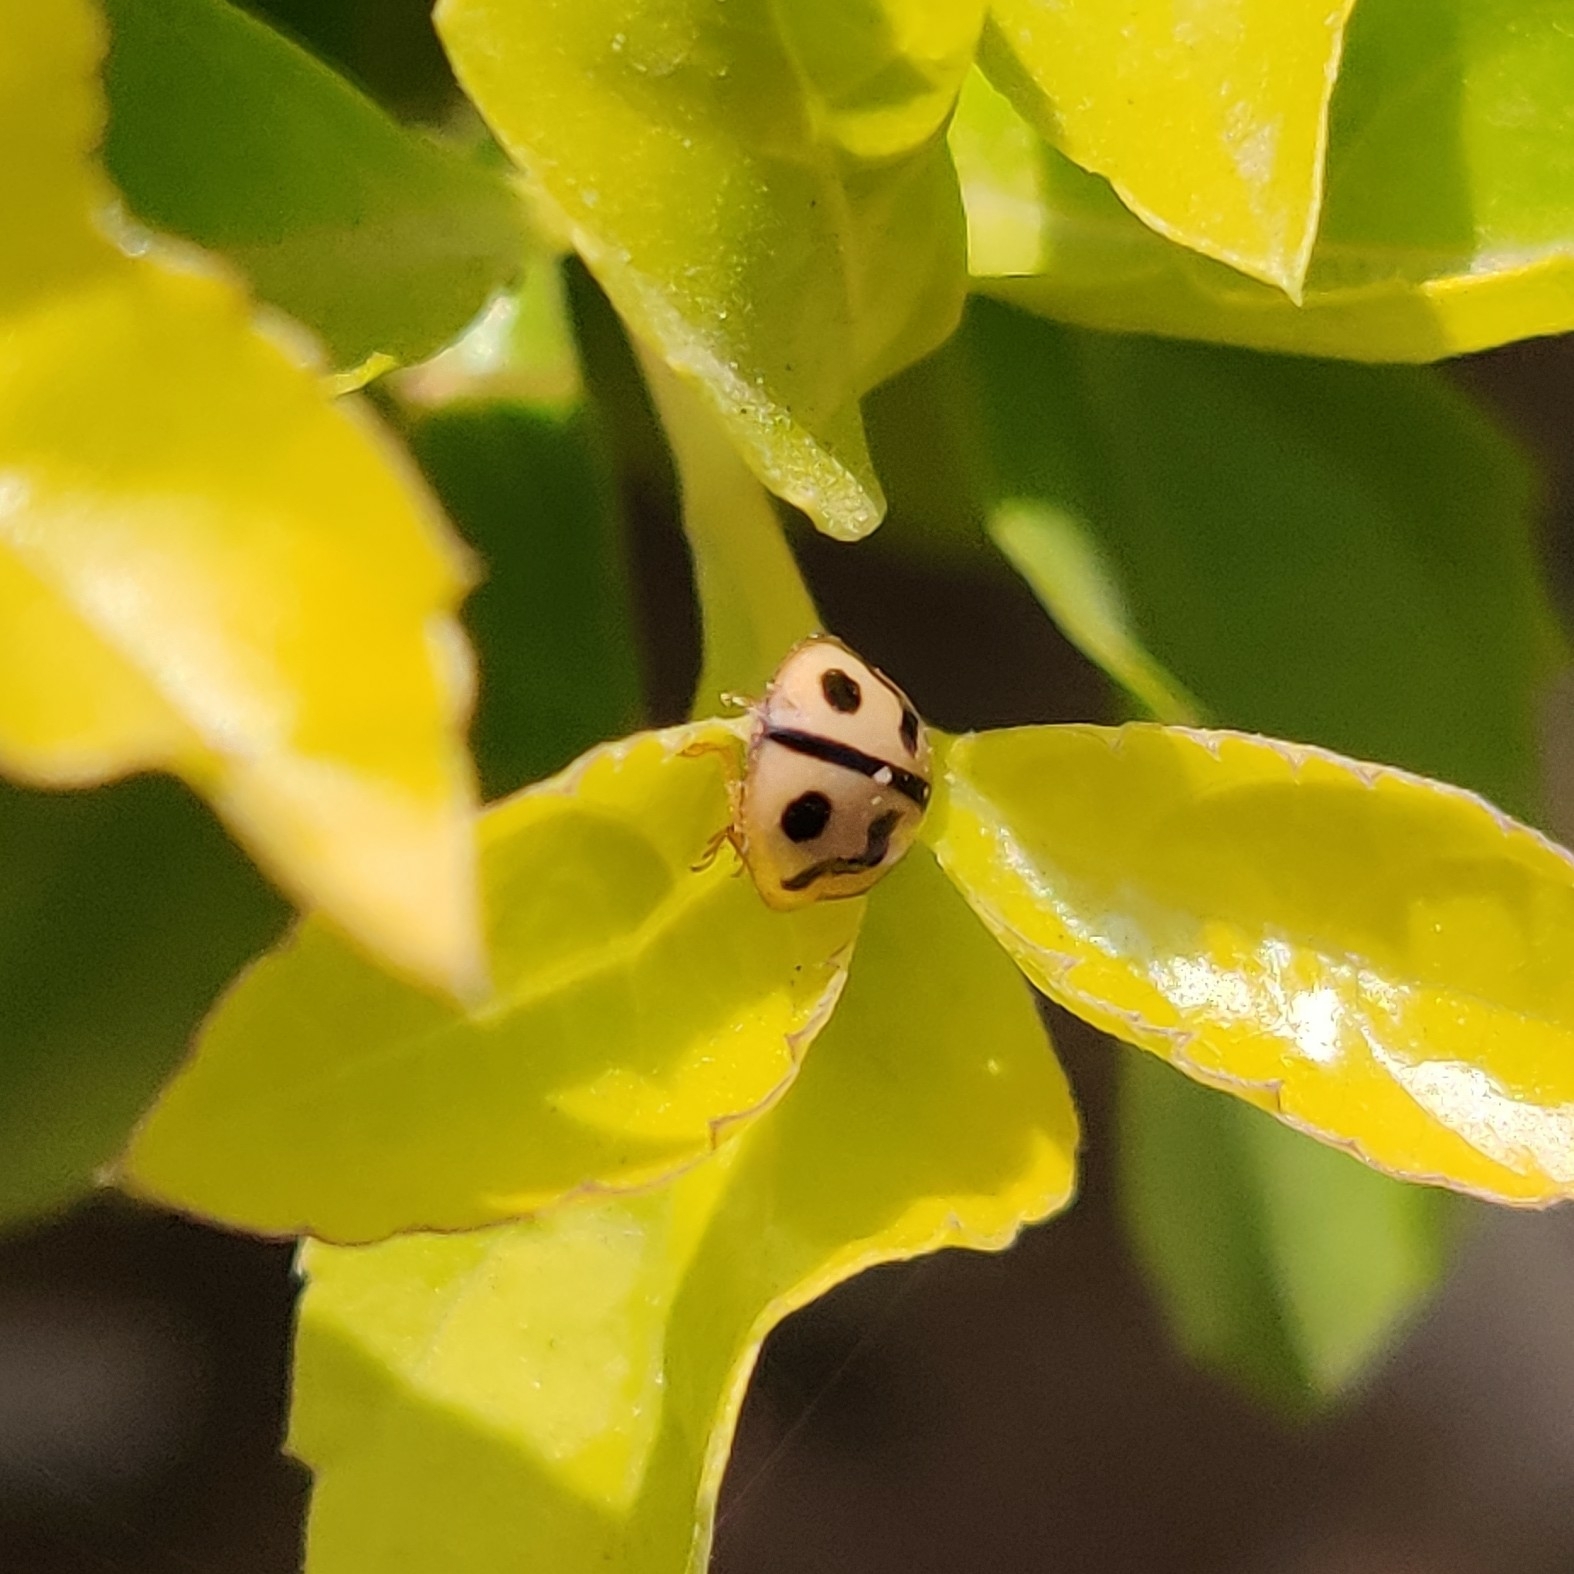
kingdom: Animalia
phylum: Arthropoda
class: Insecta
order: Coleoptera
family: Coccinellidae
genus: Cheilomenes
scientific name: Cheilomenes sexmaculata
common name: Ladybird beetle
